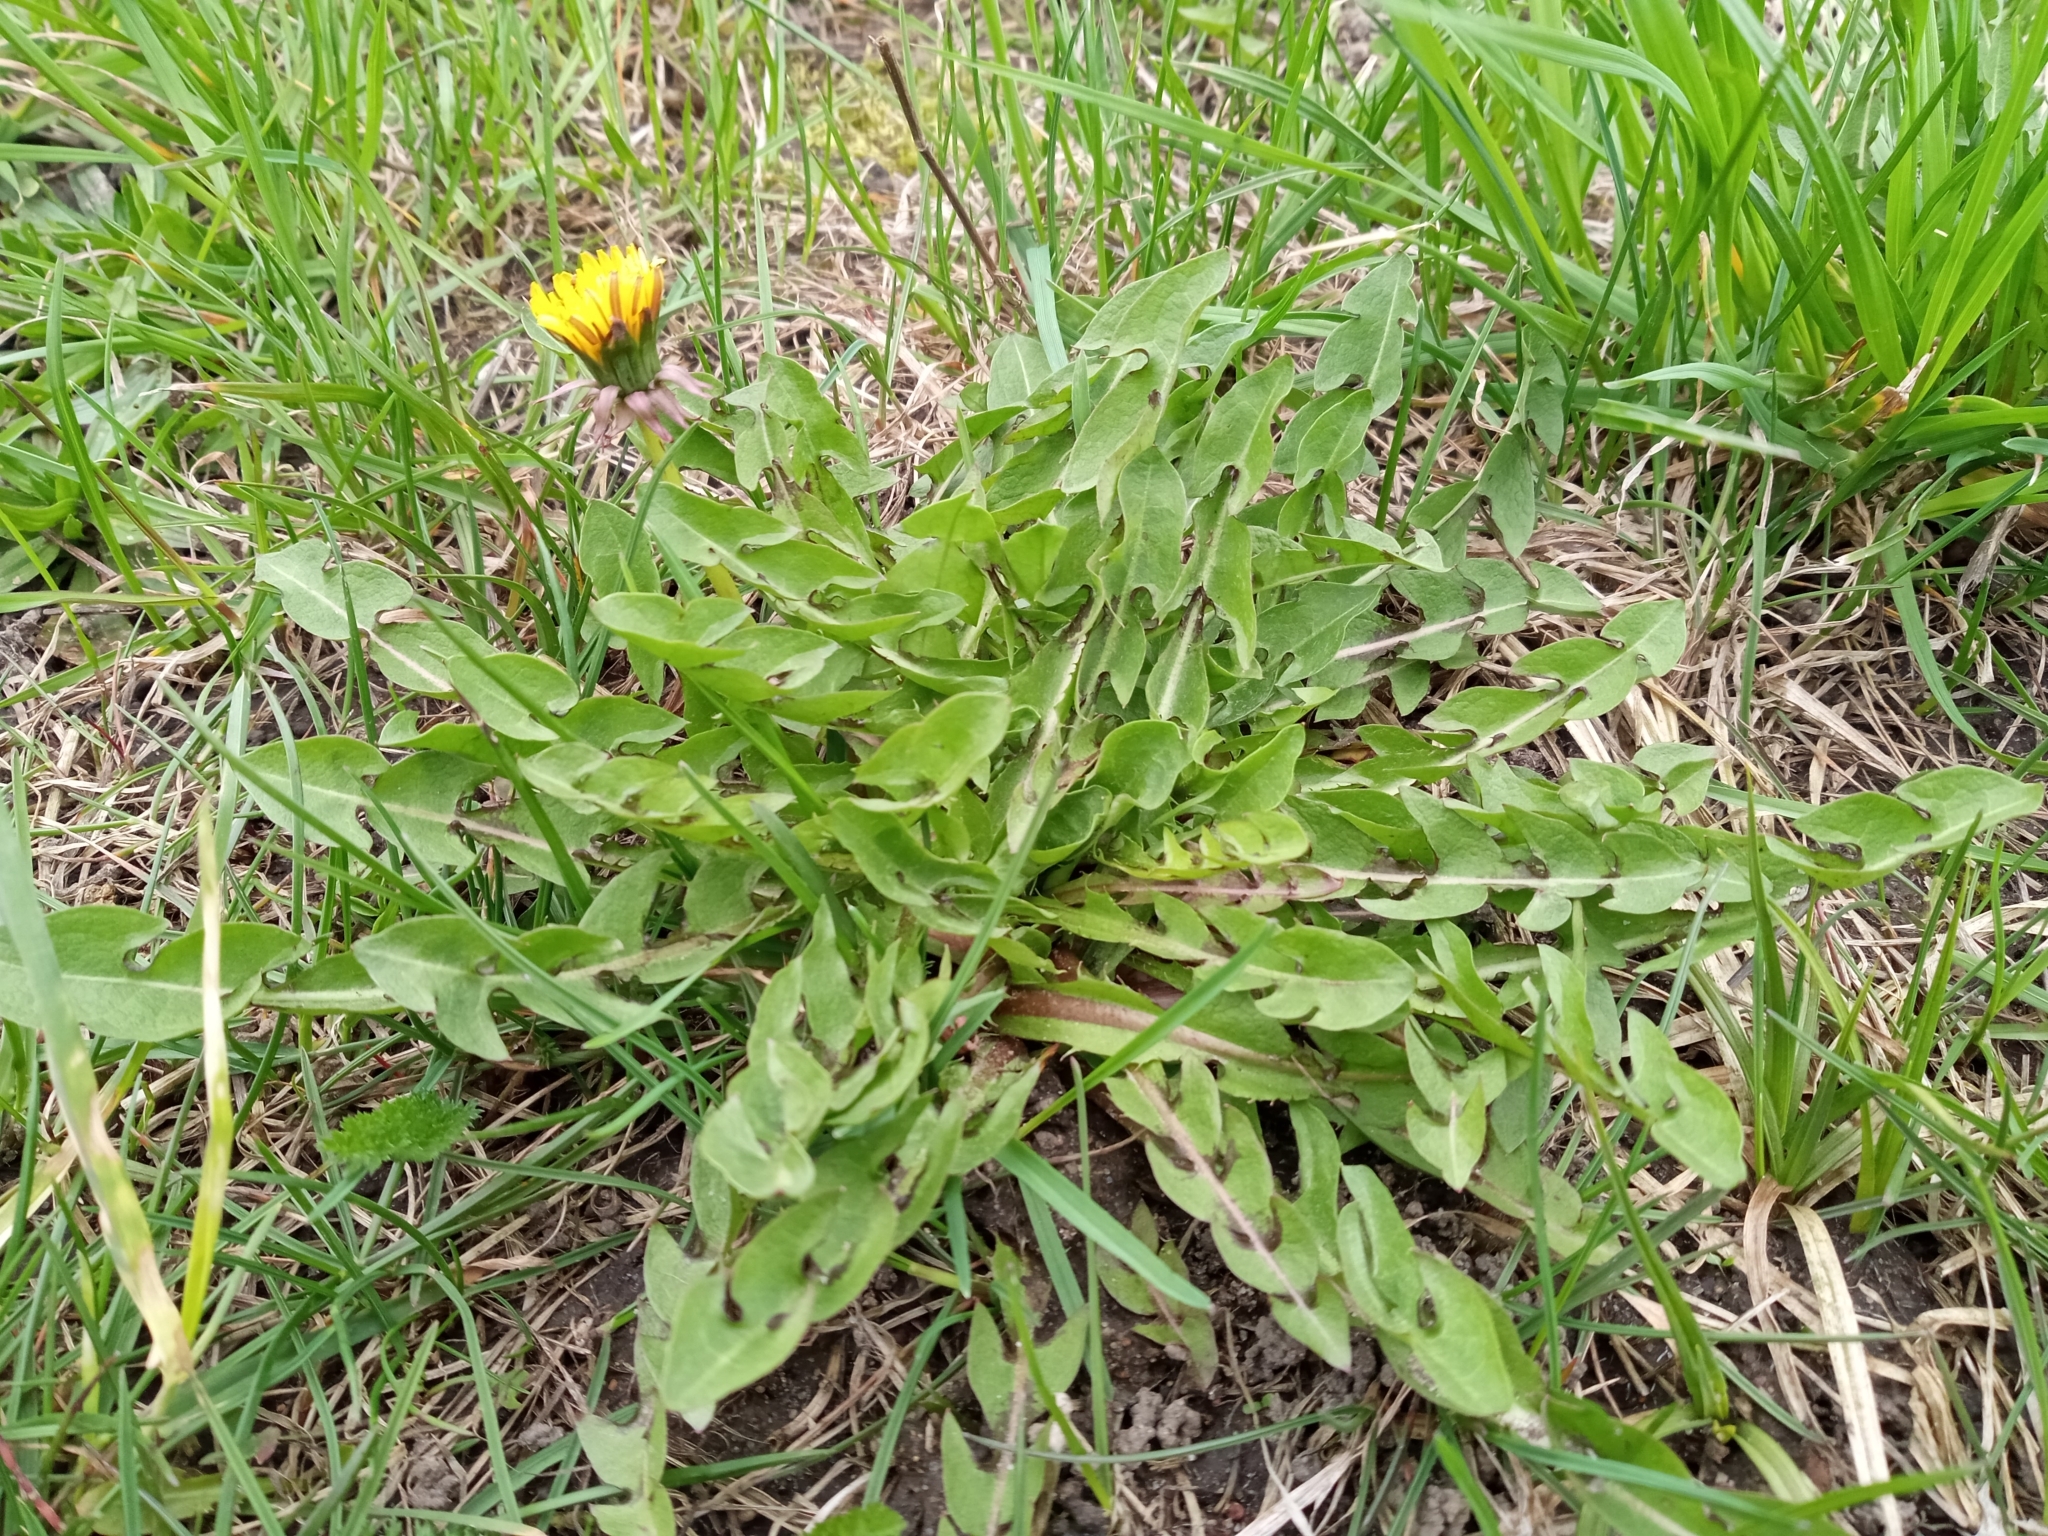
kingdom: Plantae
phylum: Tracheophyta
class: Magnoliopsida
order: Asterales
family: Asteraceae
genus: Taraxacum
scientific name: Taraxacum officinale
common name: Common dandelion
